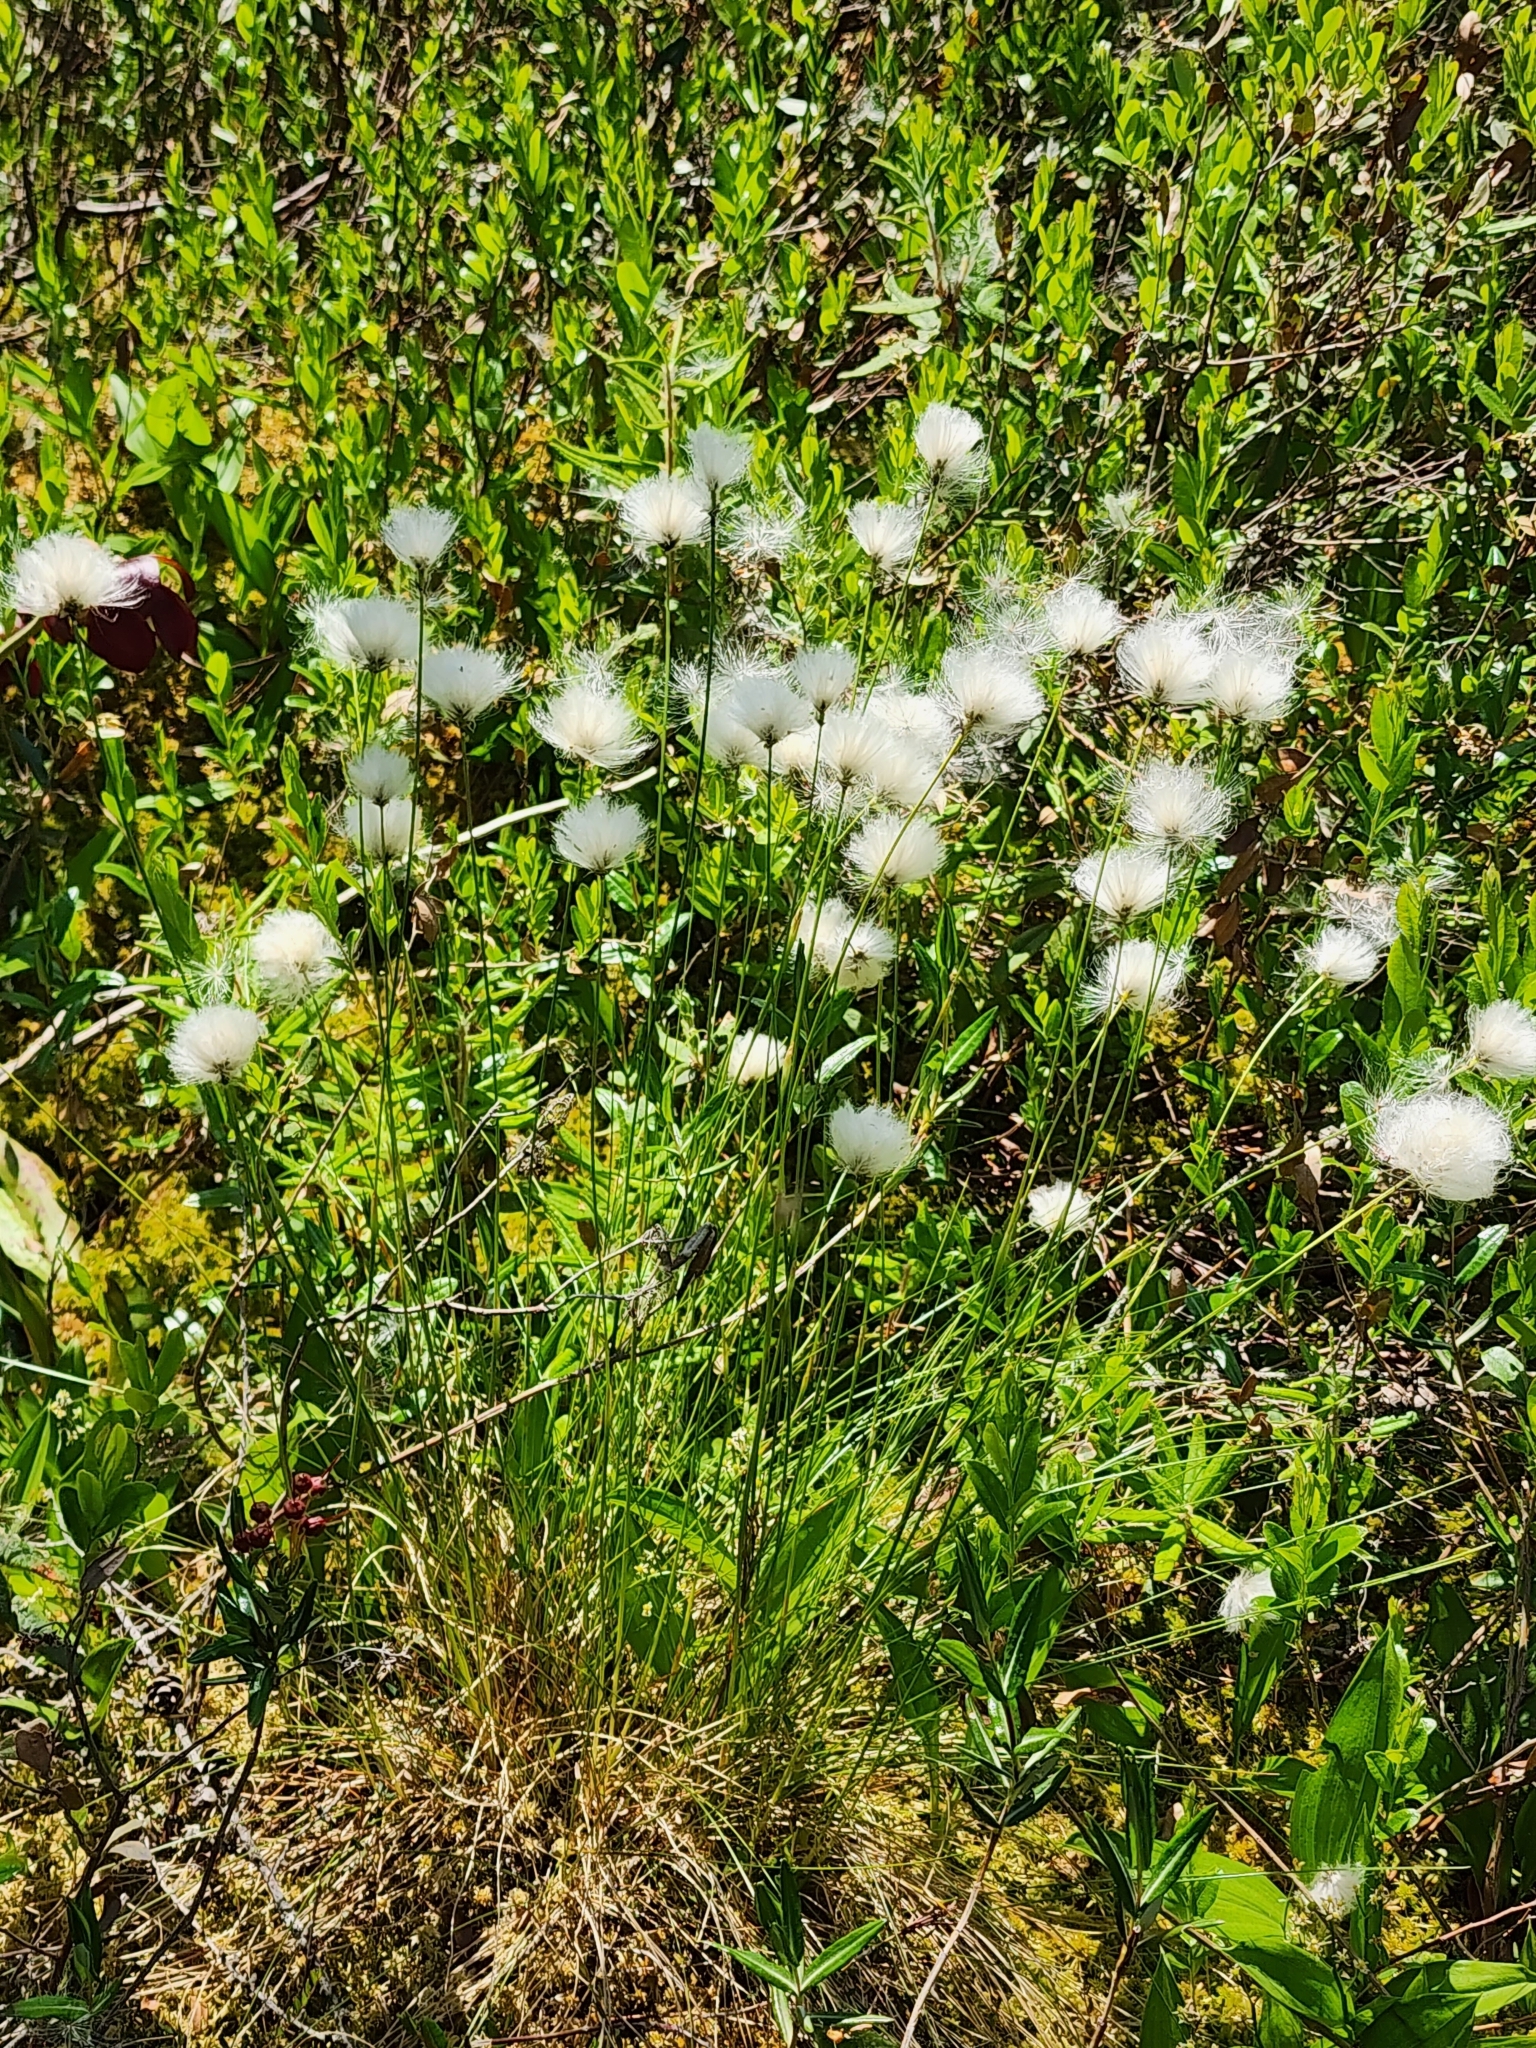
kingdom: Plantae
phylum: Tracheophyta
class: Liliopsida
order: Poales
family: Cyperaceae
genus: Eriophorum
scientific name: Eriophorum vaginatum
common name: Hare's-tail cottongrass
